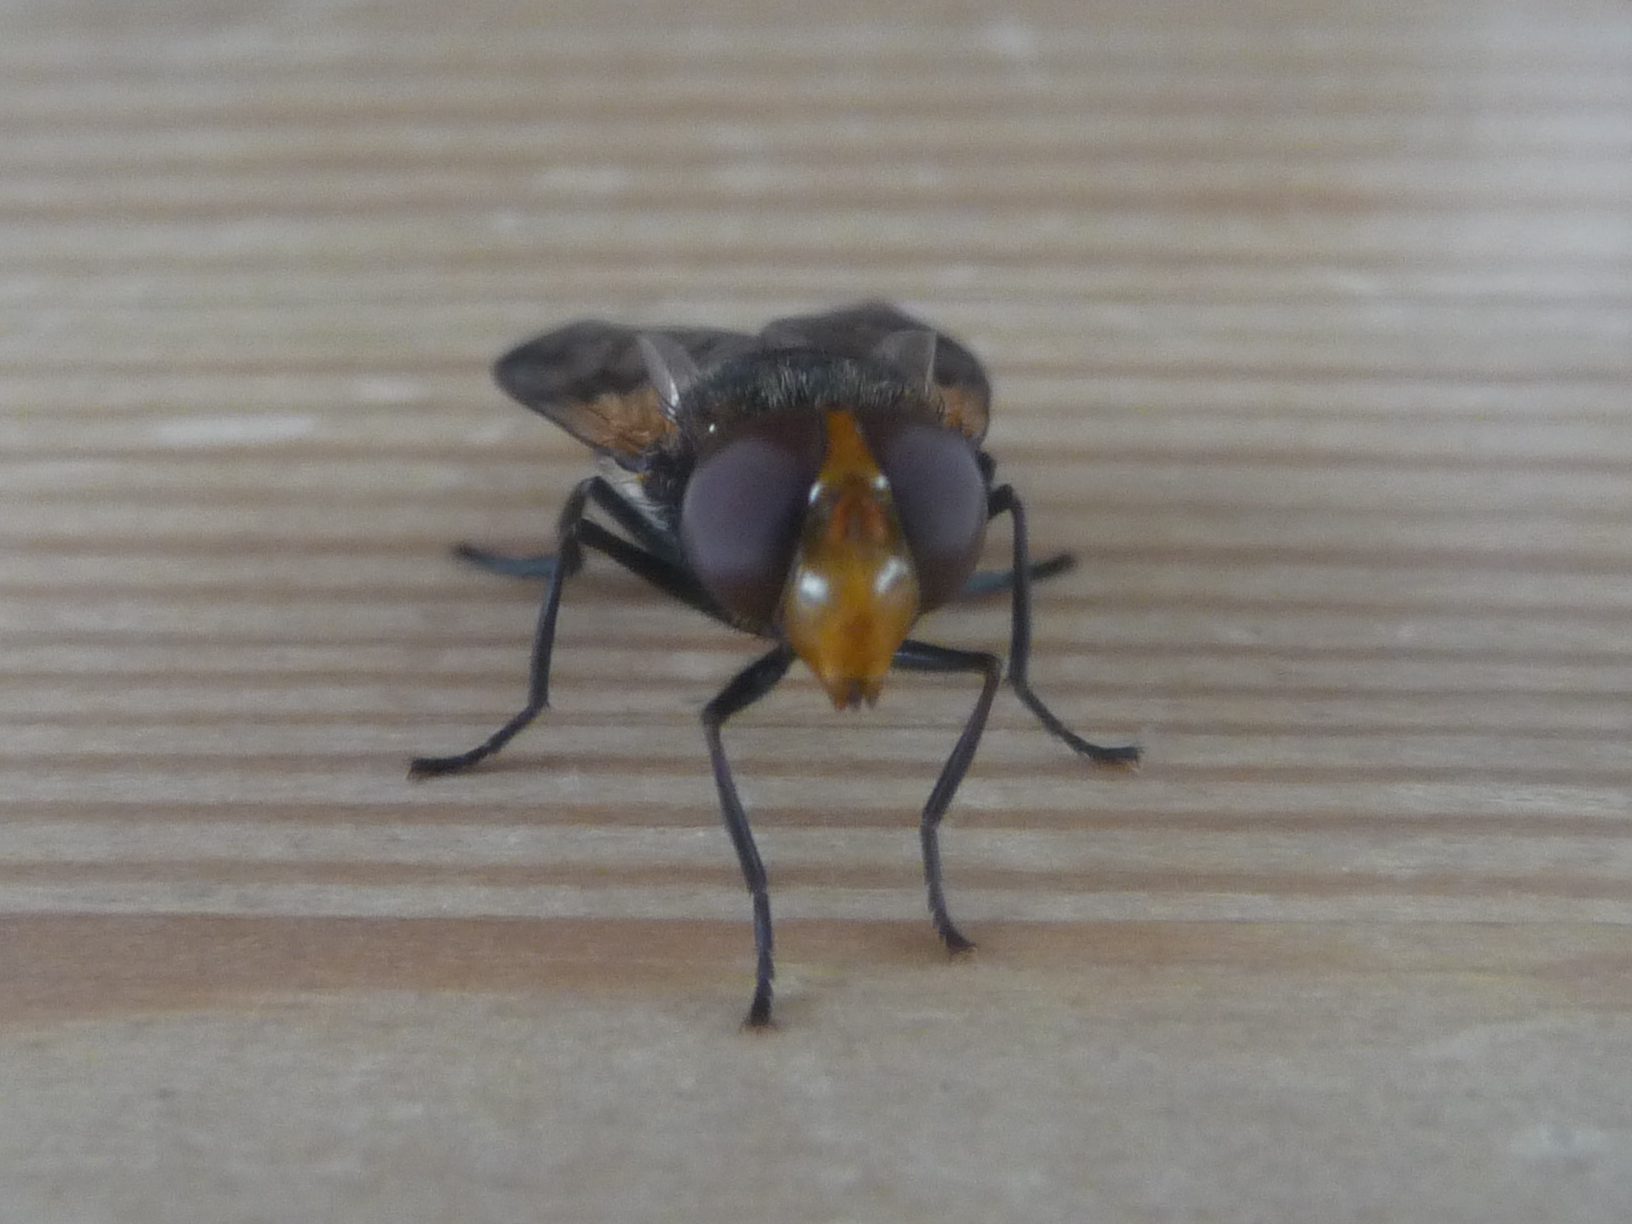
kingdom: Animalia
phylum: Arthropoda
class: Insecta
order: Diptera
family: Syrphidae
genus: Volucella
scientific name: Volucella pellucens
